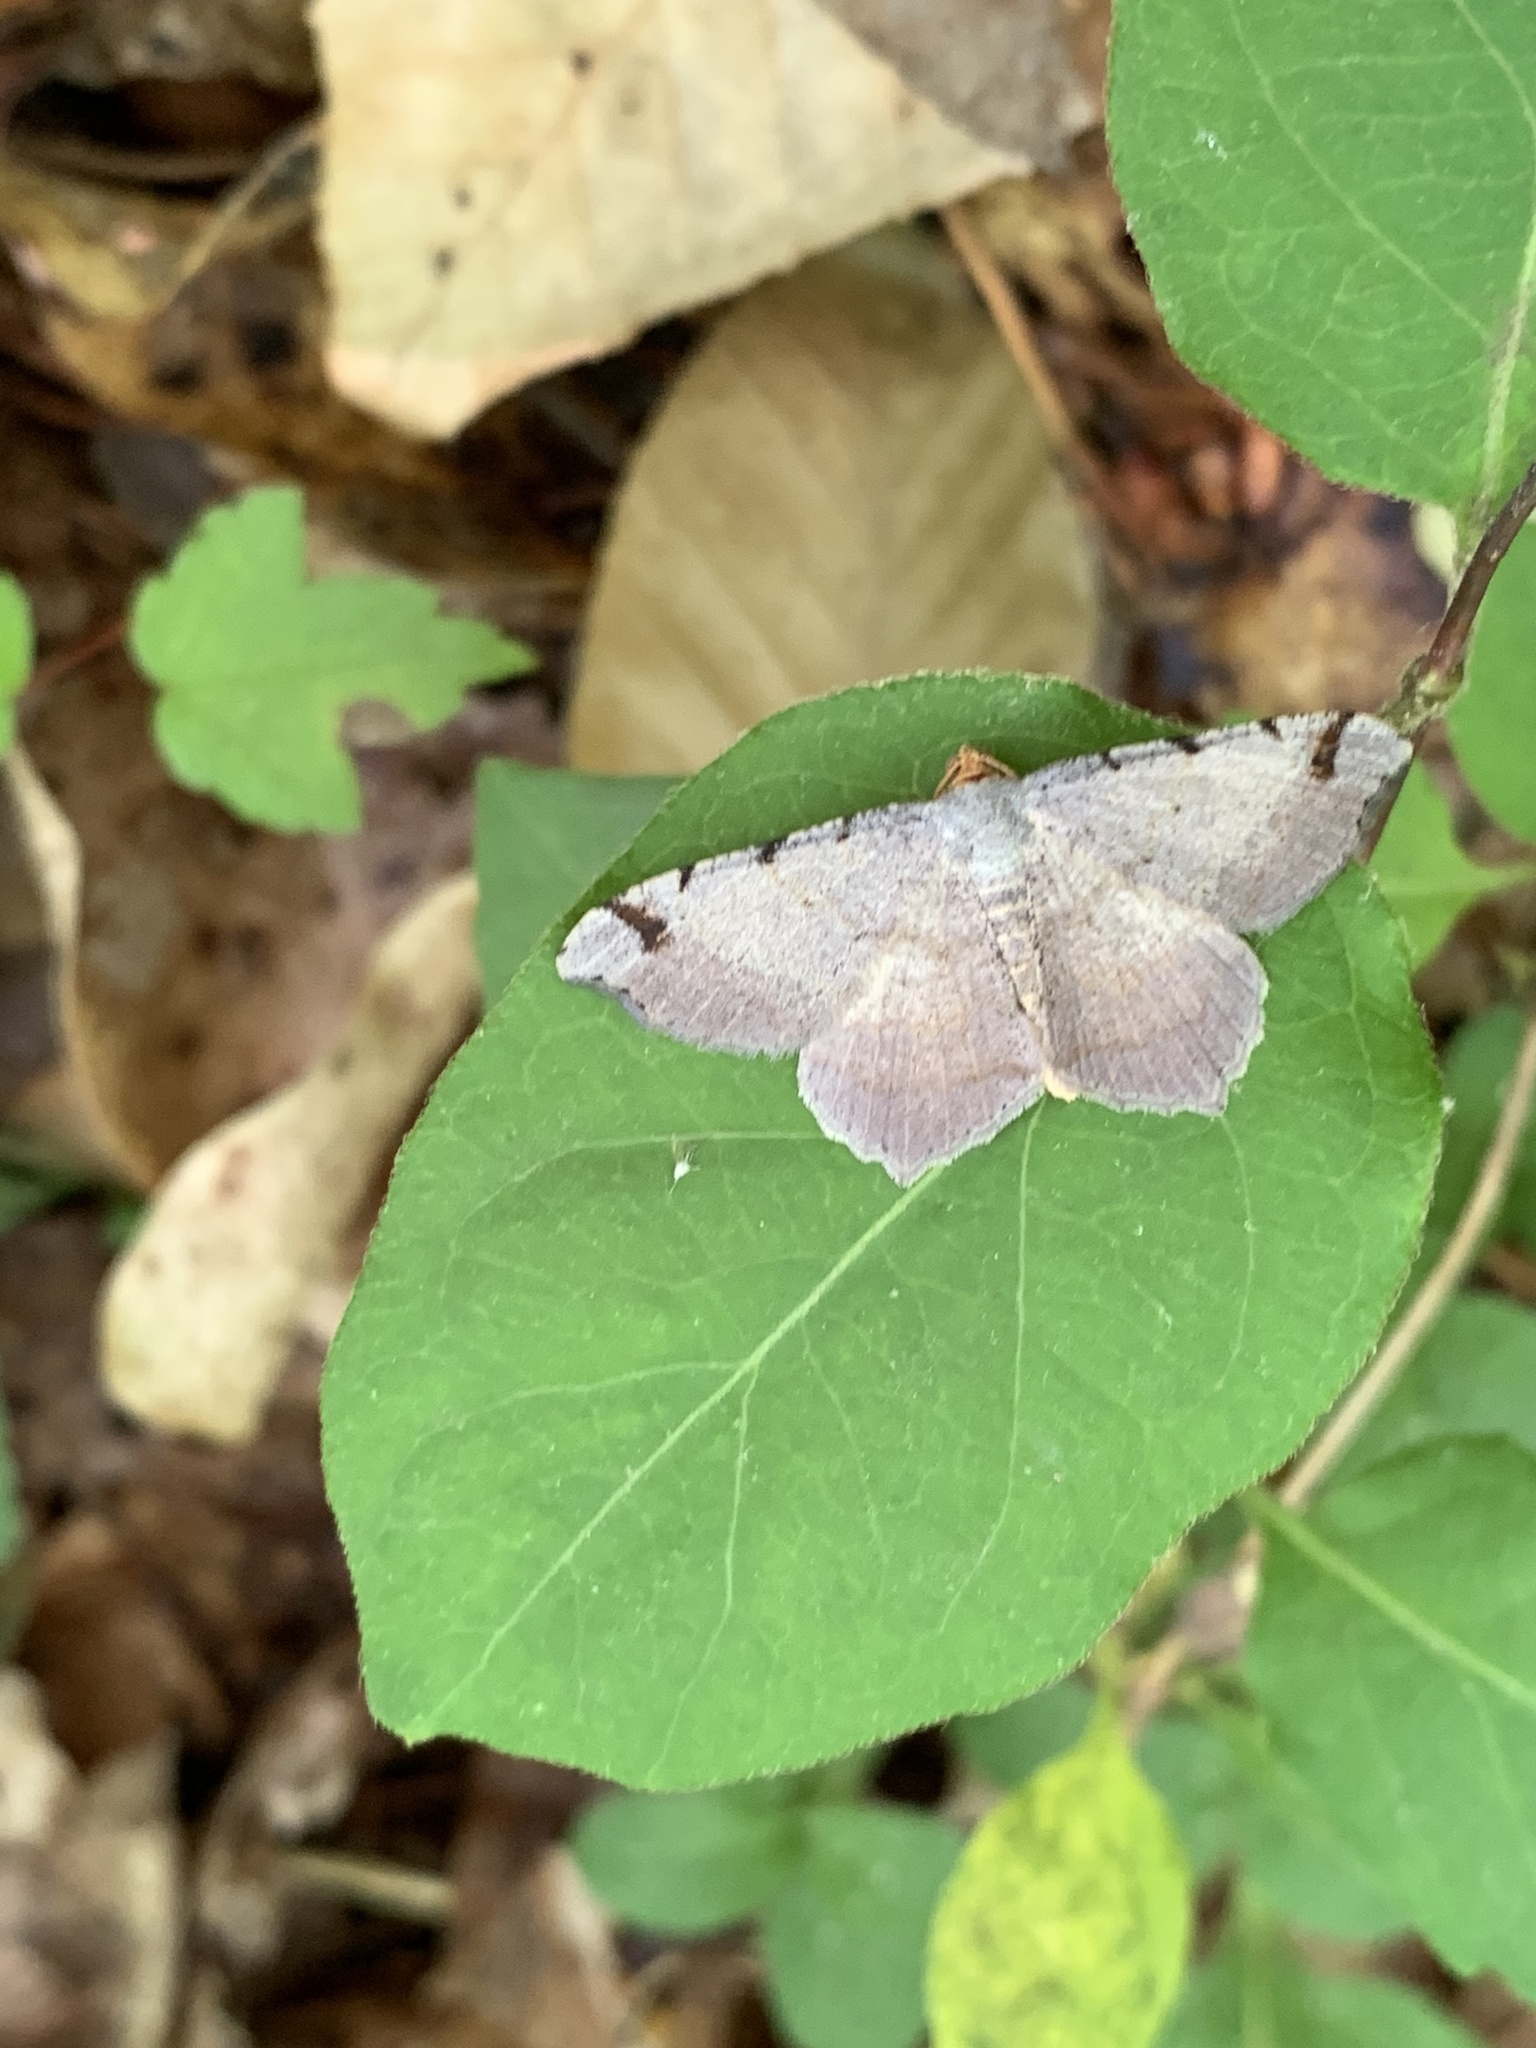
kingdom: Animalia
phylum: Arthropoda
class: Insecta
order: Lepidoptera
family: Geometridae
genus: Macaria
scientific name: Macaria bicolorata
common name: Dingy angle
